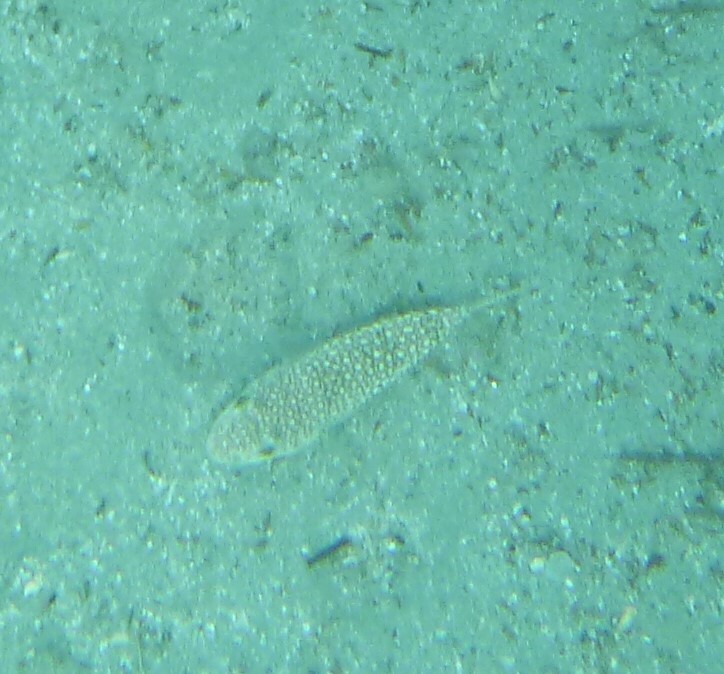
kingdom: Animalia
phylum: Chordata
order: Tetraodontiformes
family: Tetraodontidae
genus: Torquigener
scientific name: Torquigener flavimaculosus
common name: Studded pufferfish
